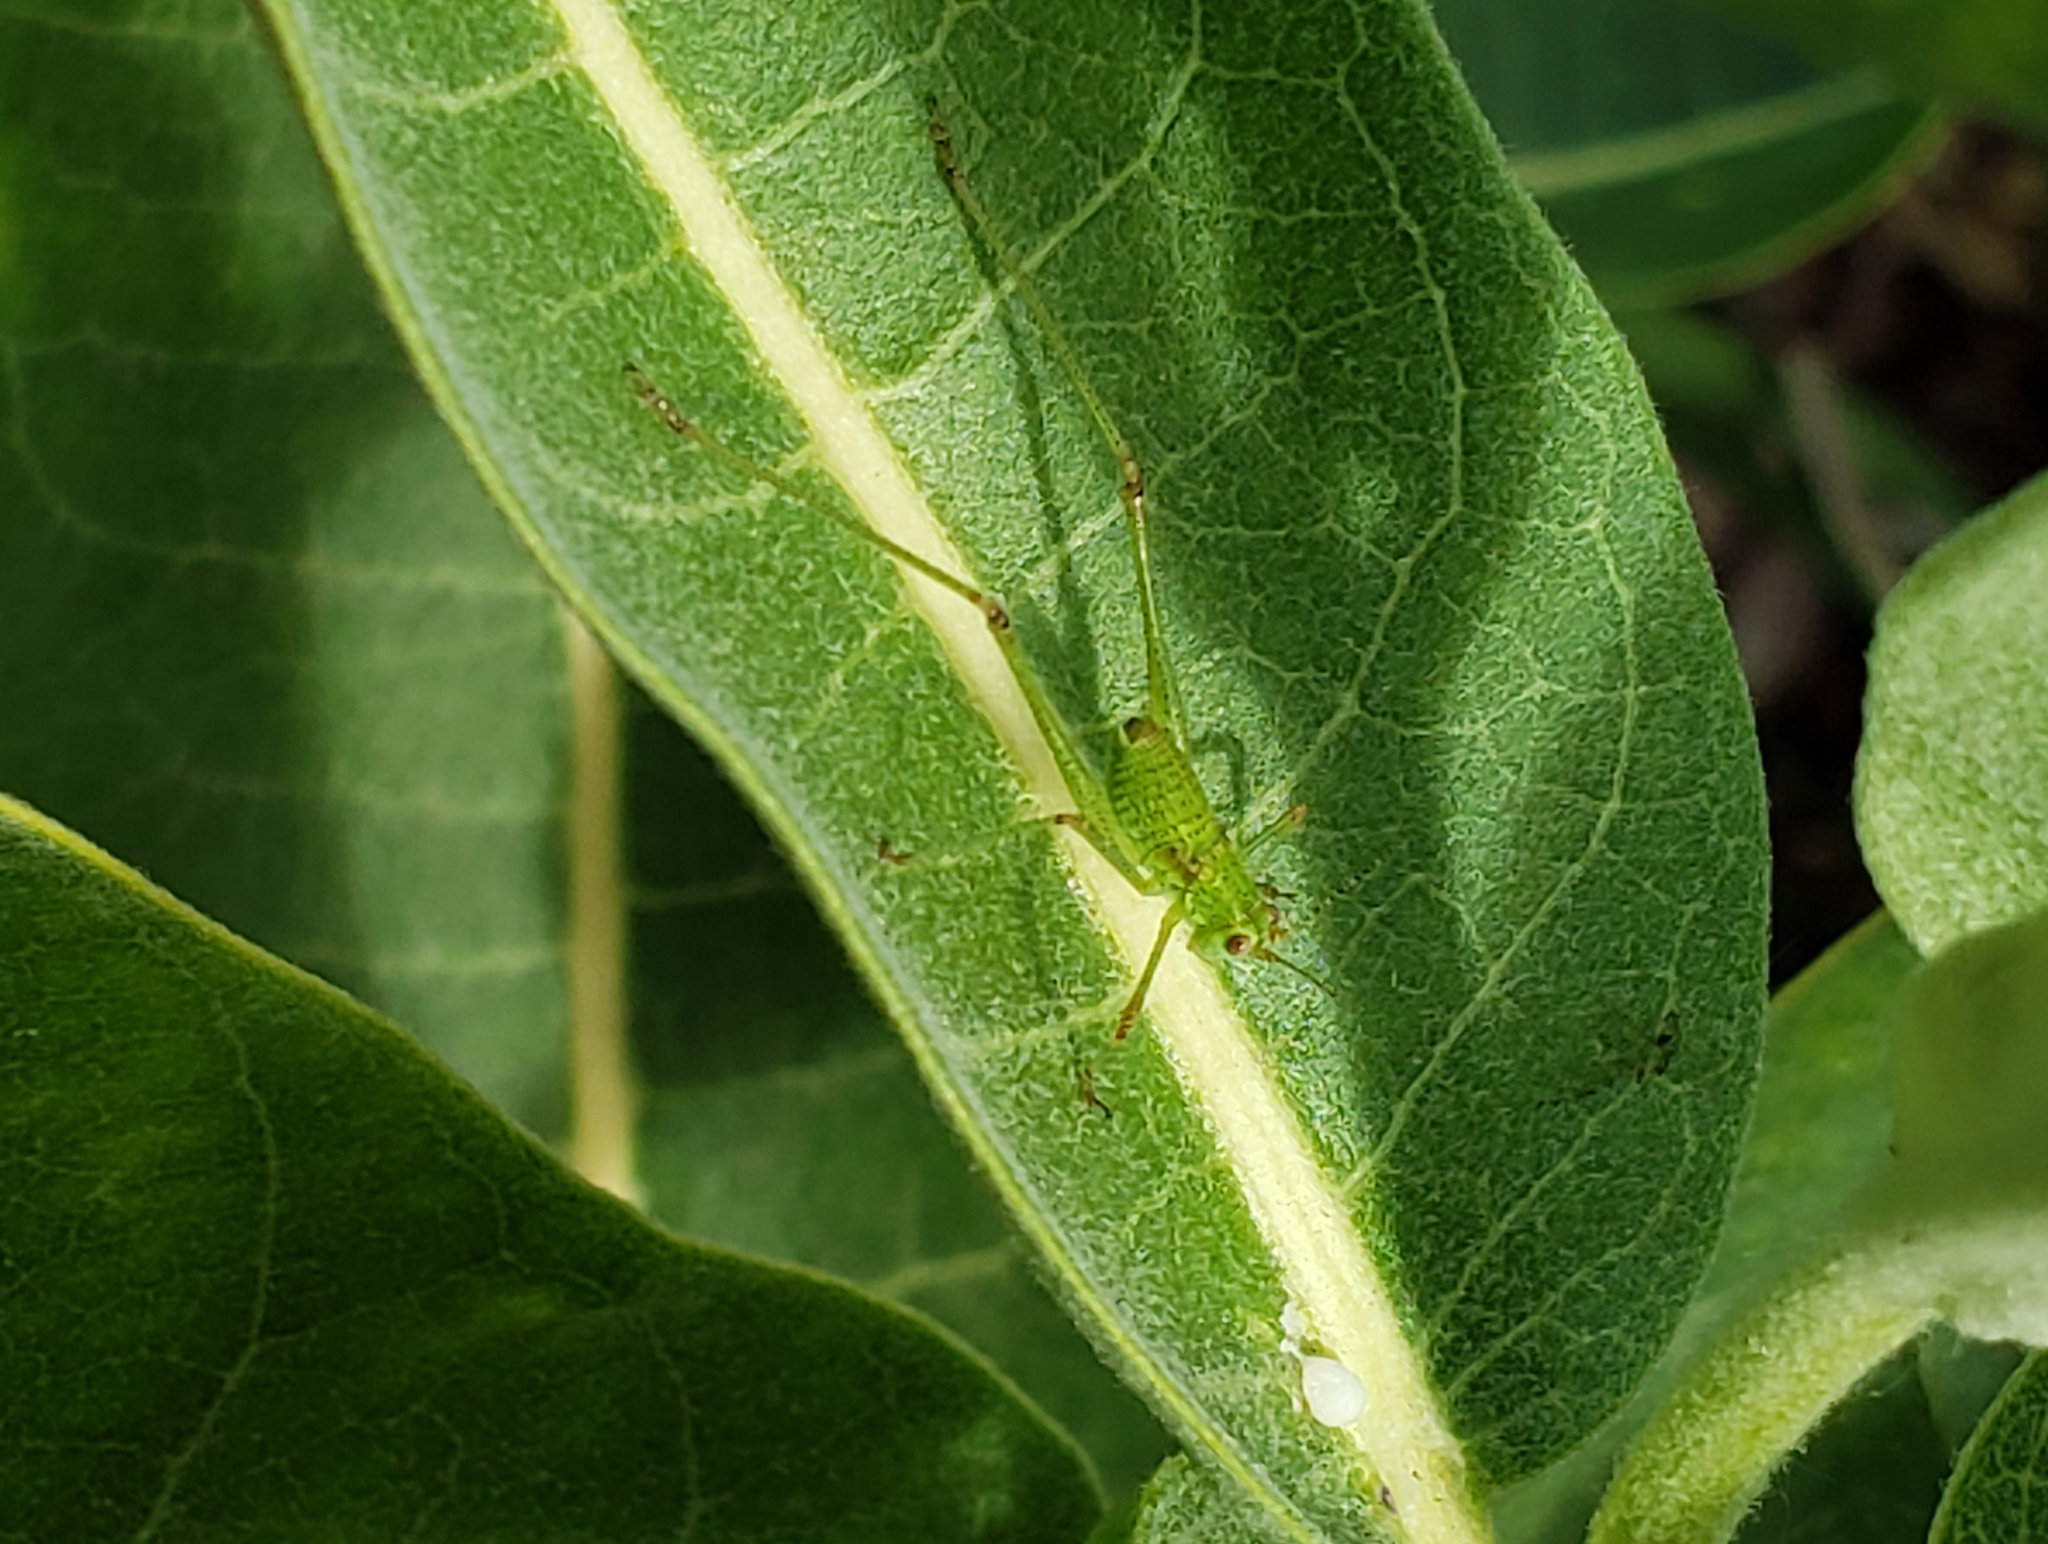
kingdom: Animalia
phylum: Arthropoda
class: Insecta
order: Orthoptera
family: Tettigoniidae
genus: Phaneroptera
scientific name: Phaneroptera nana
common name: Southern sickle bush-cricket
